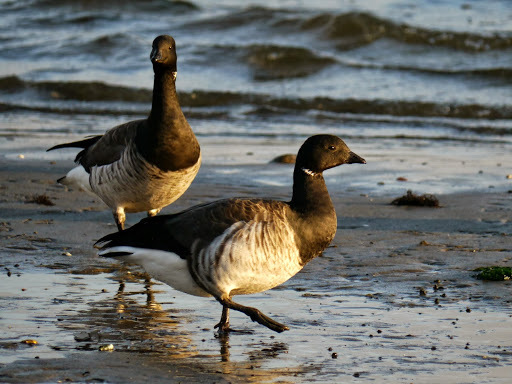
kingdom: Animalia
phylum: Chordata
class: Aves
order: Anseriformes
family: Anatidae
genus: Branta
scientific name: Branta bernicla
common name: Brant goose
